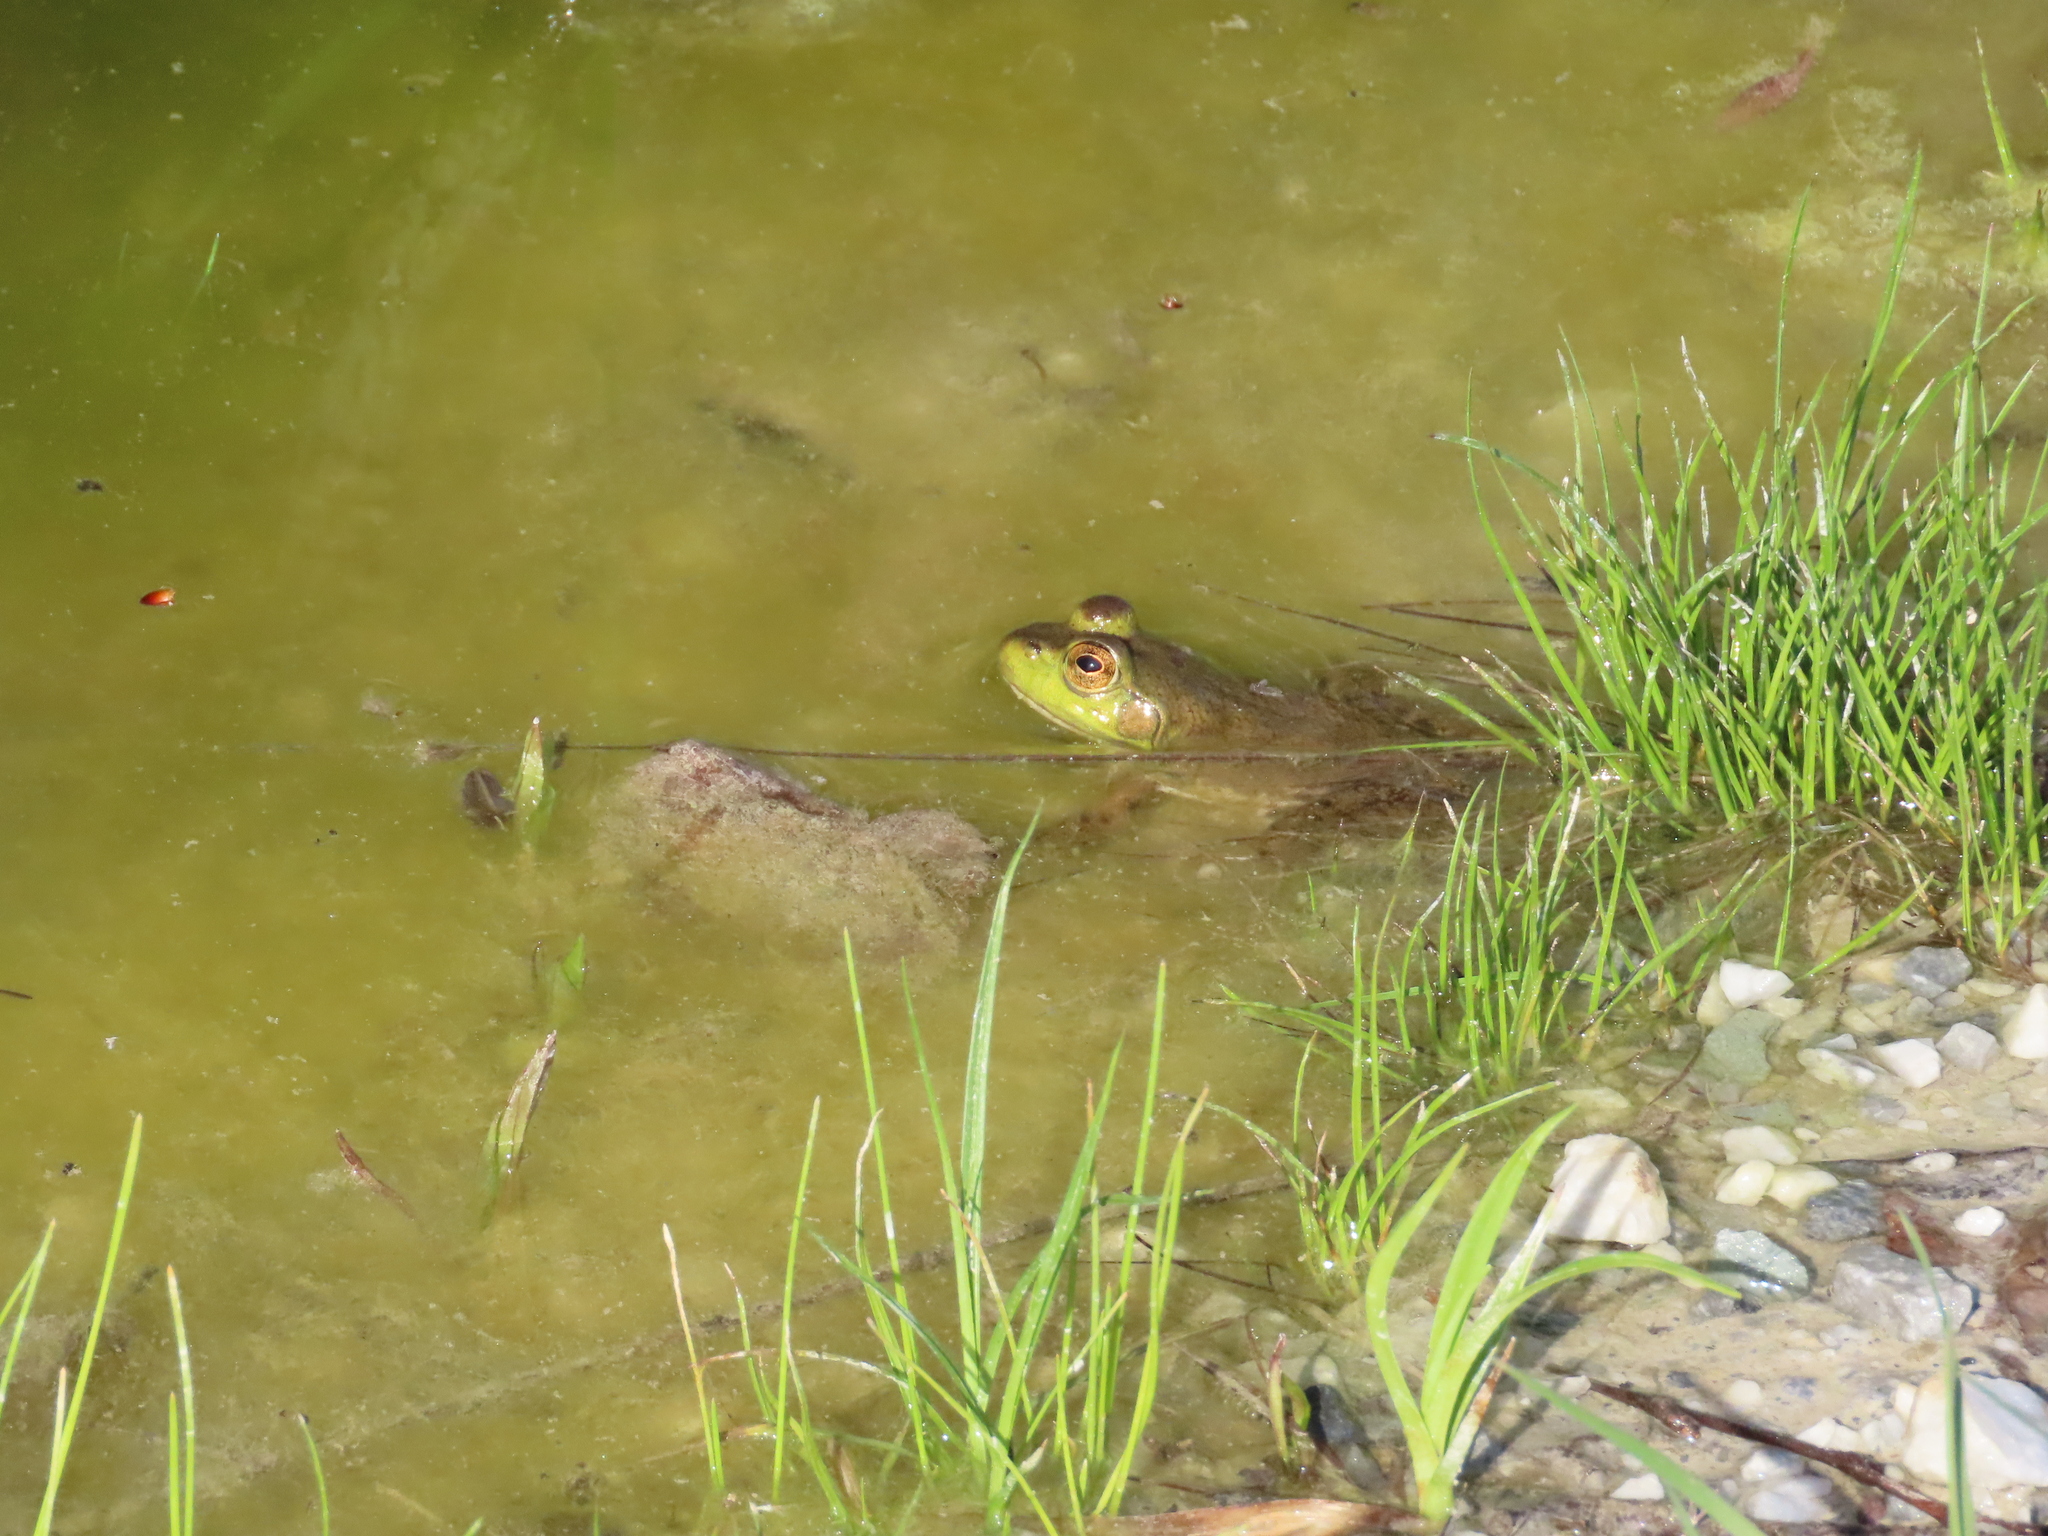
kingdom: Animalia
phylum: Chordata
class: Amphibia
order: Anura
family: Ranidae
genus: Lithobates
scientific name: Lithobates catesbeianus
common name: American bullfrog
